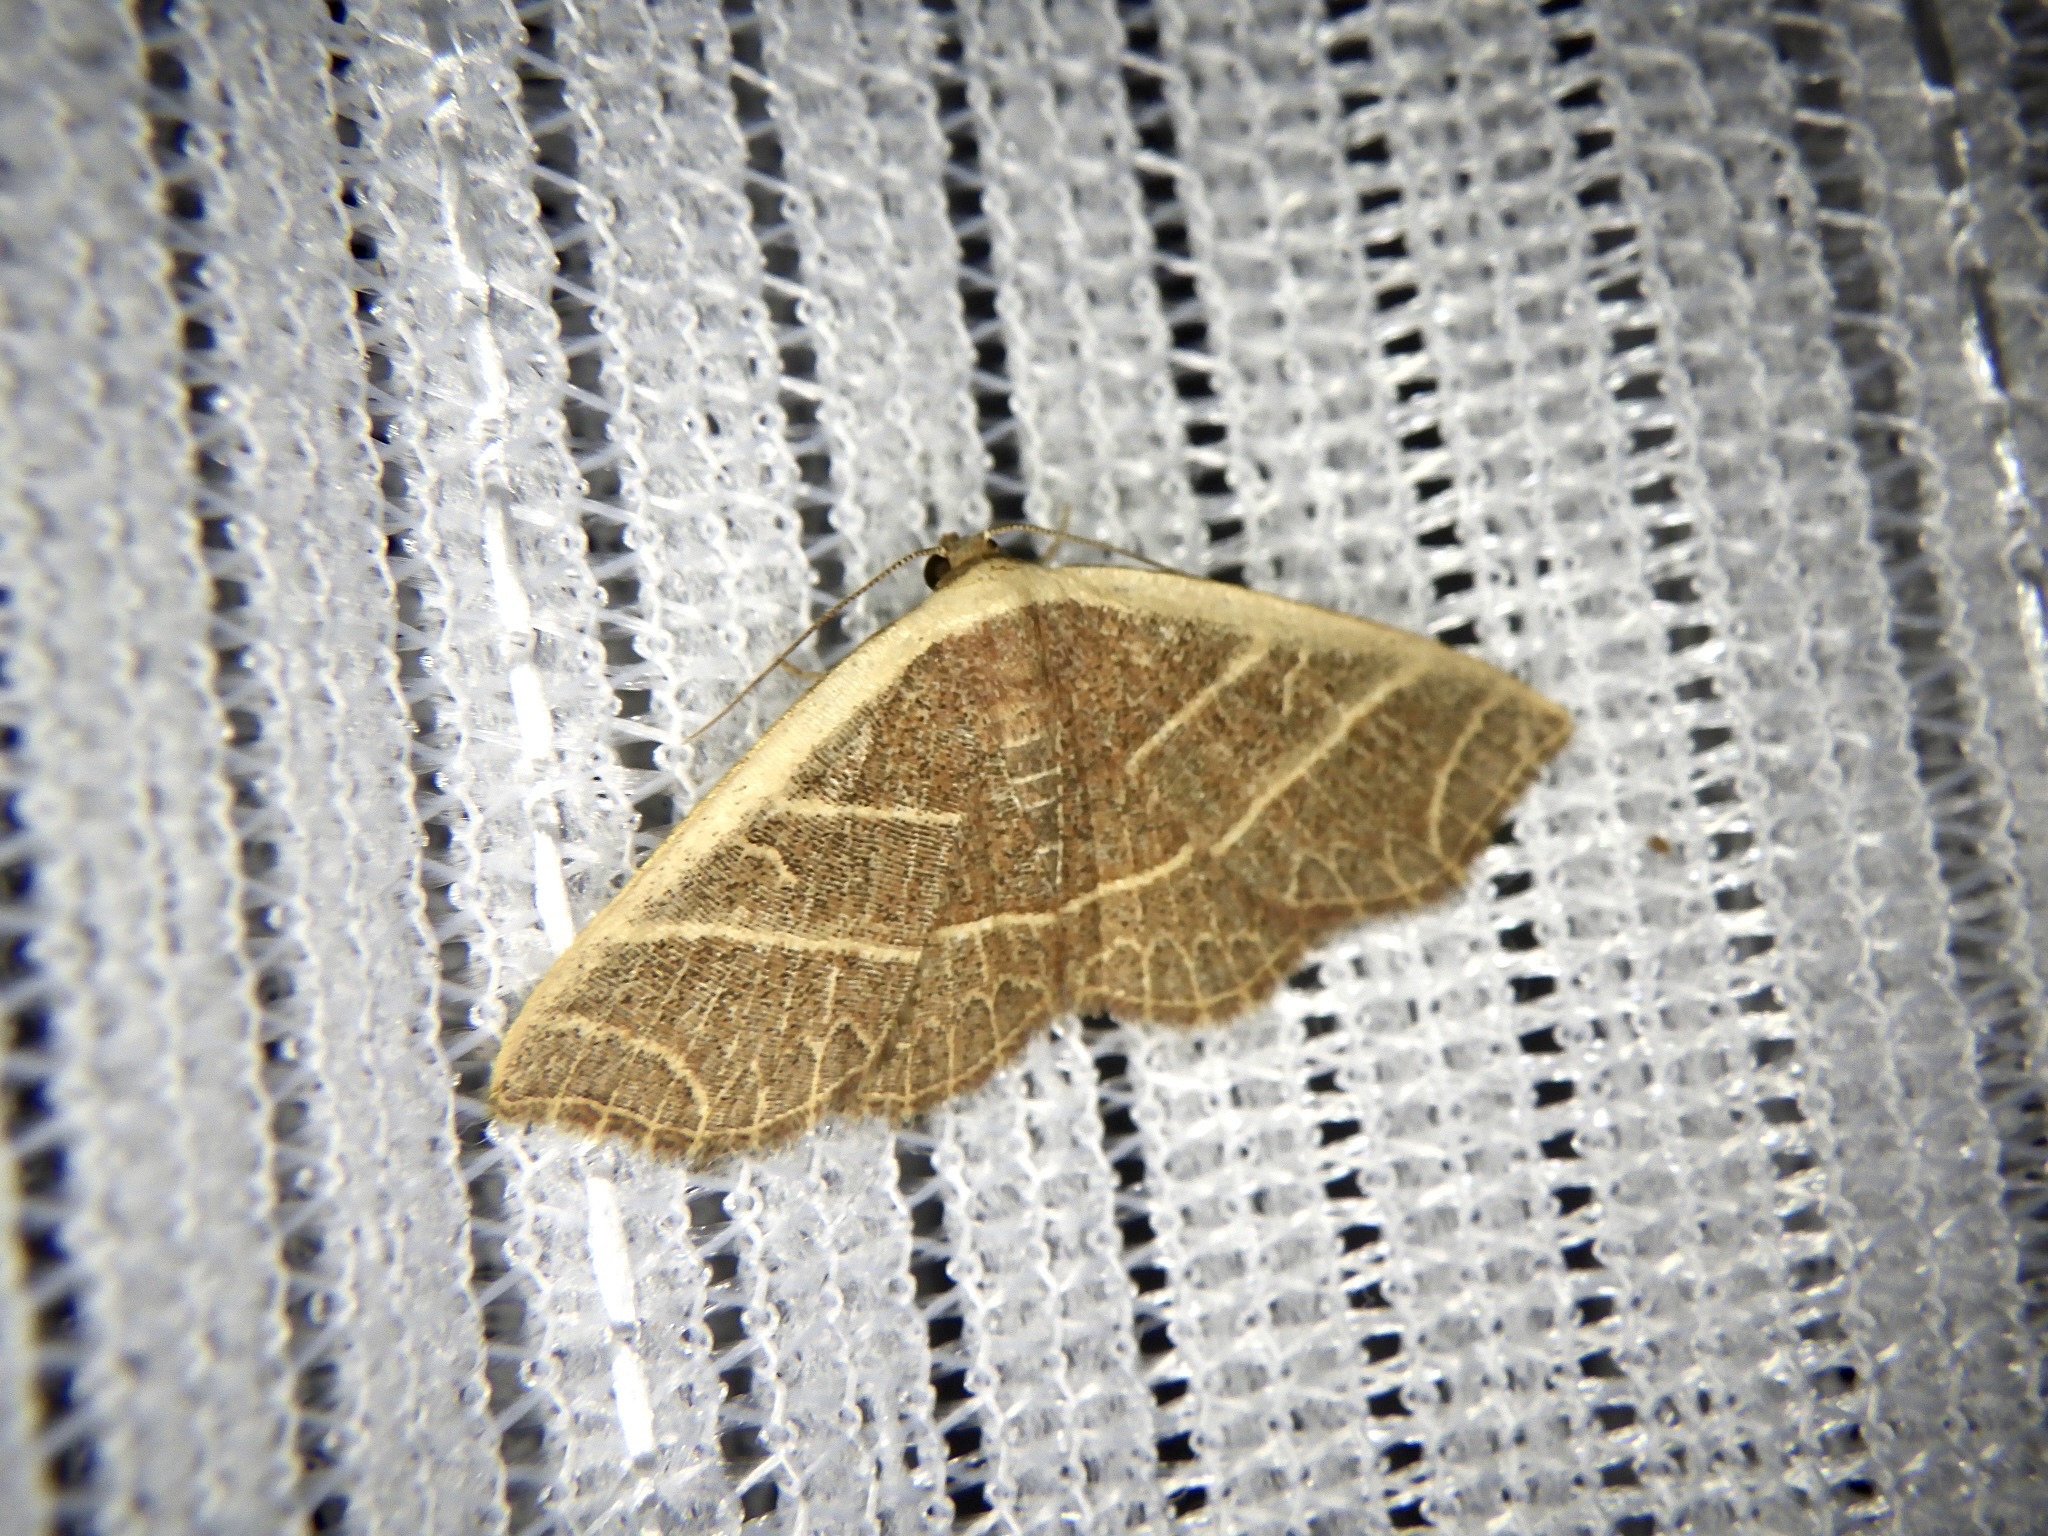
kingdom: Animalia
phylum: Arthropoda
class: Insecta
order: Lepidoptera
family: Noctuidae
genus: Oruza
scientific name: Oruza mira
